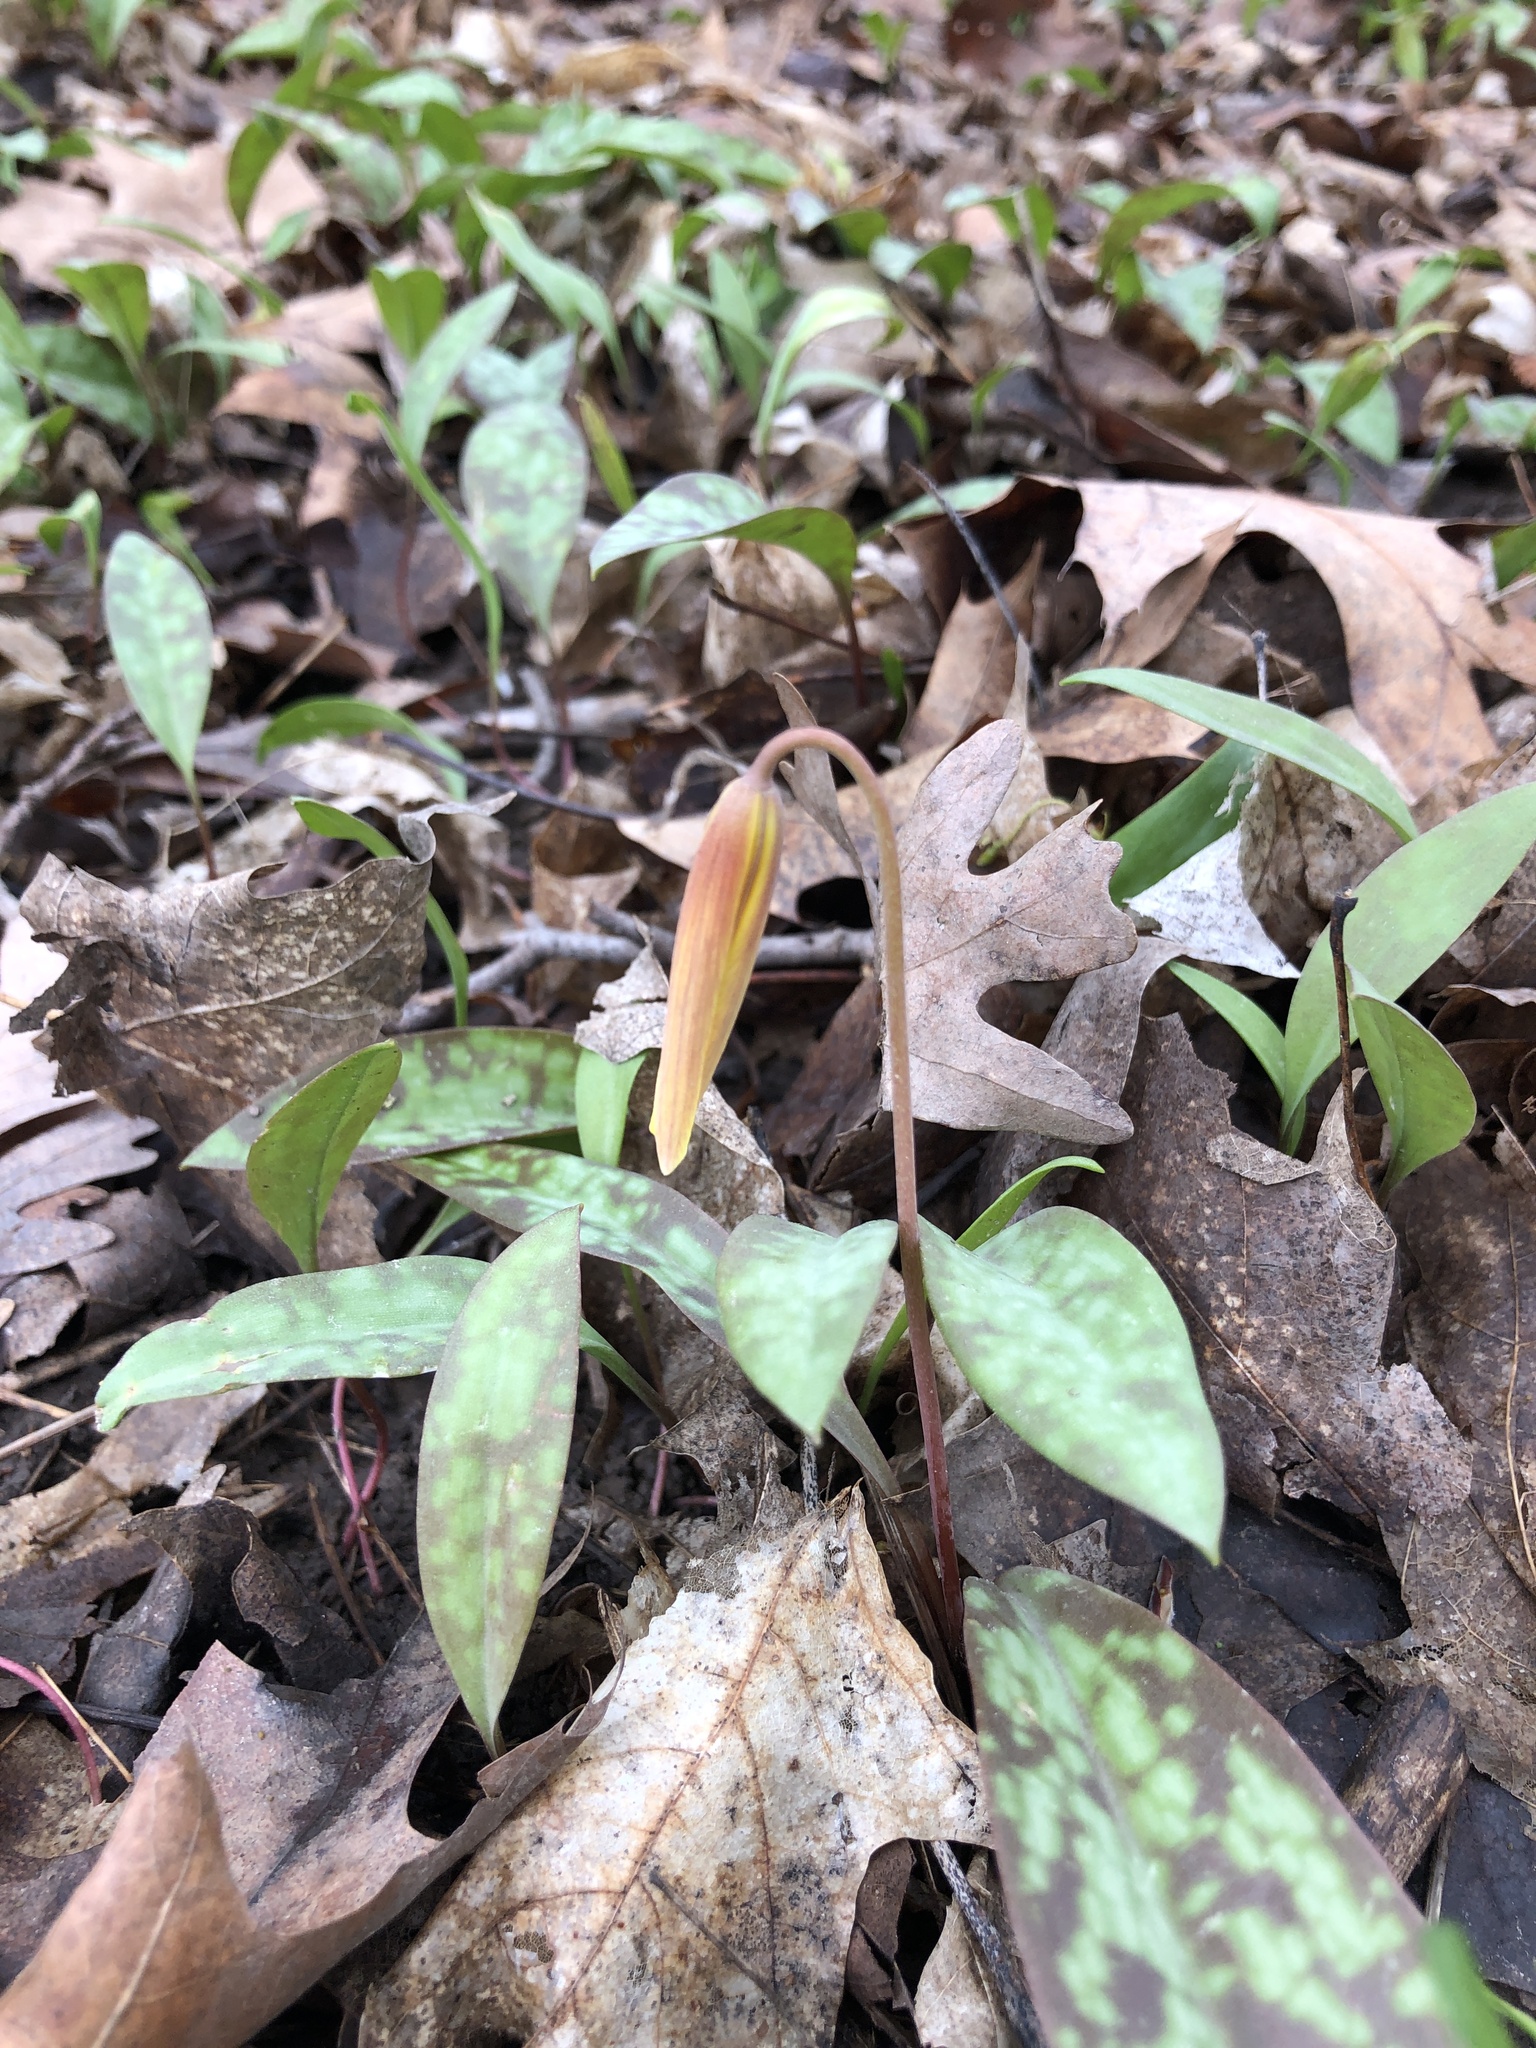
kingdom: Plantae
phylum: Tracheophyta
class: Liliopsida
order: Liliales
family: Liliaceae
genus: Erythronium
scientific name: Erythronium americanum
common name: Yellow adder's-tongue
